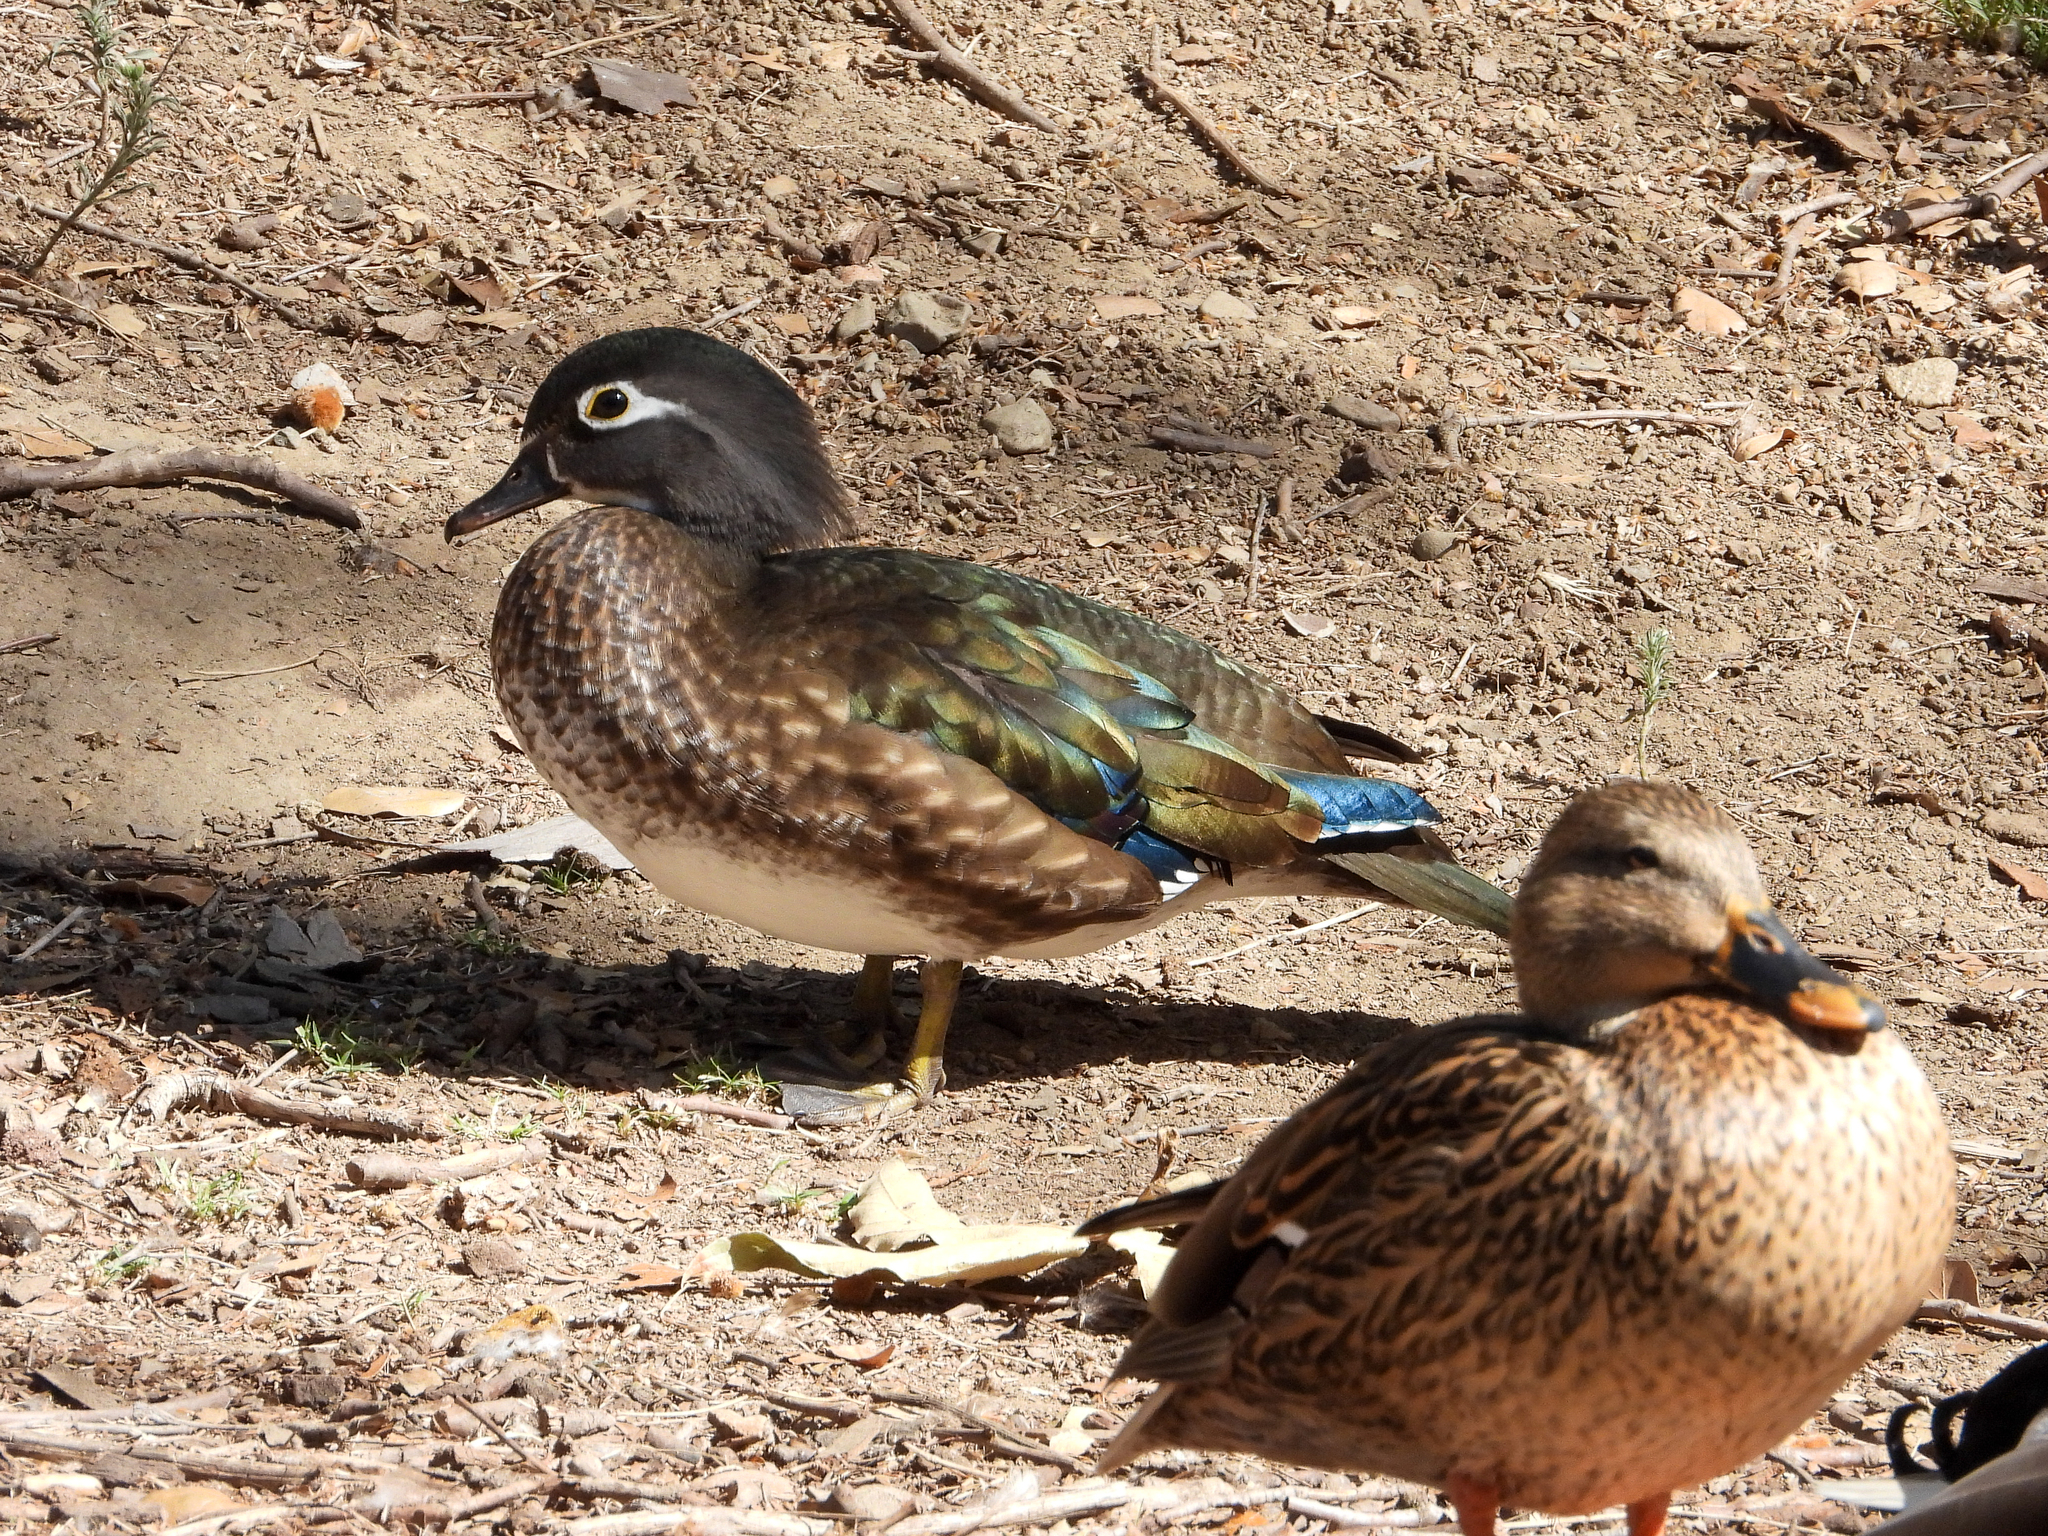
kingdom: Animalia
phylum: Chordata
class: Aves
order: Anseriformes
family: Anatidae
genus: Aix
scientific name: Aix sponsa
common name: Wood duck
